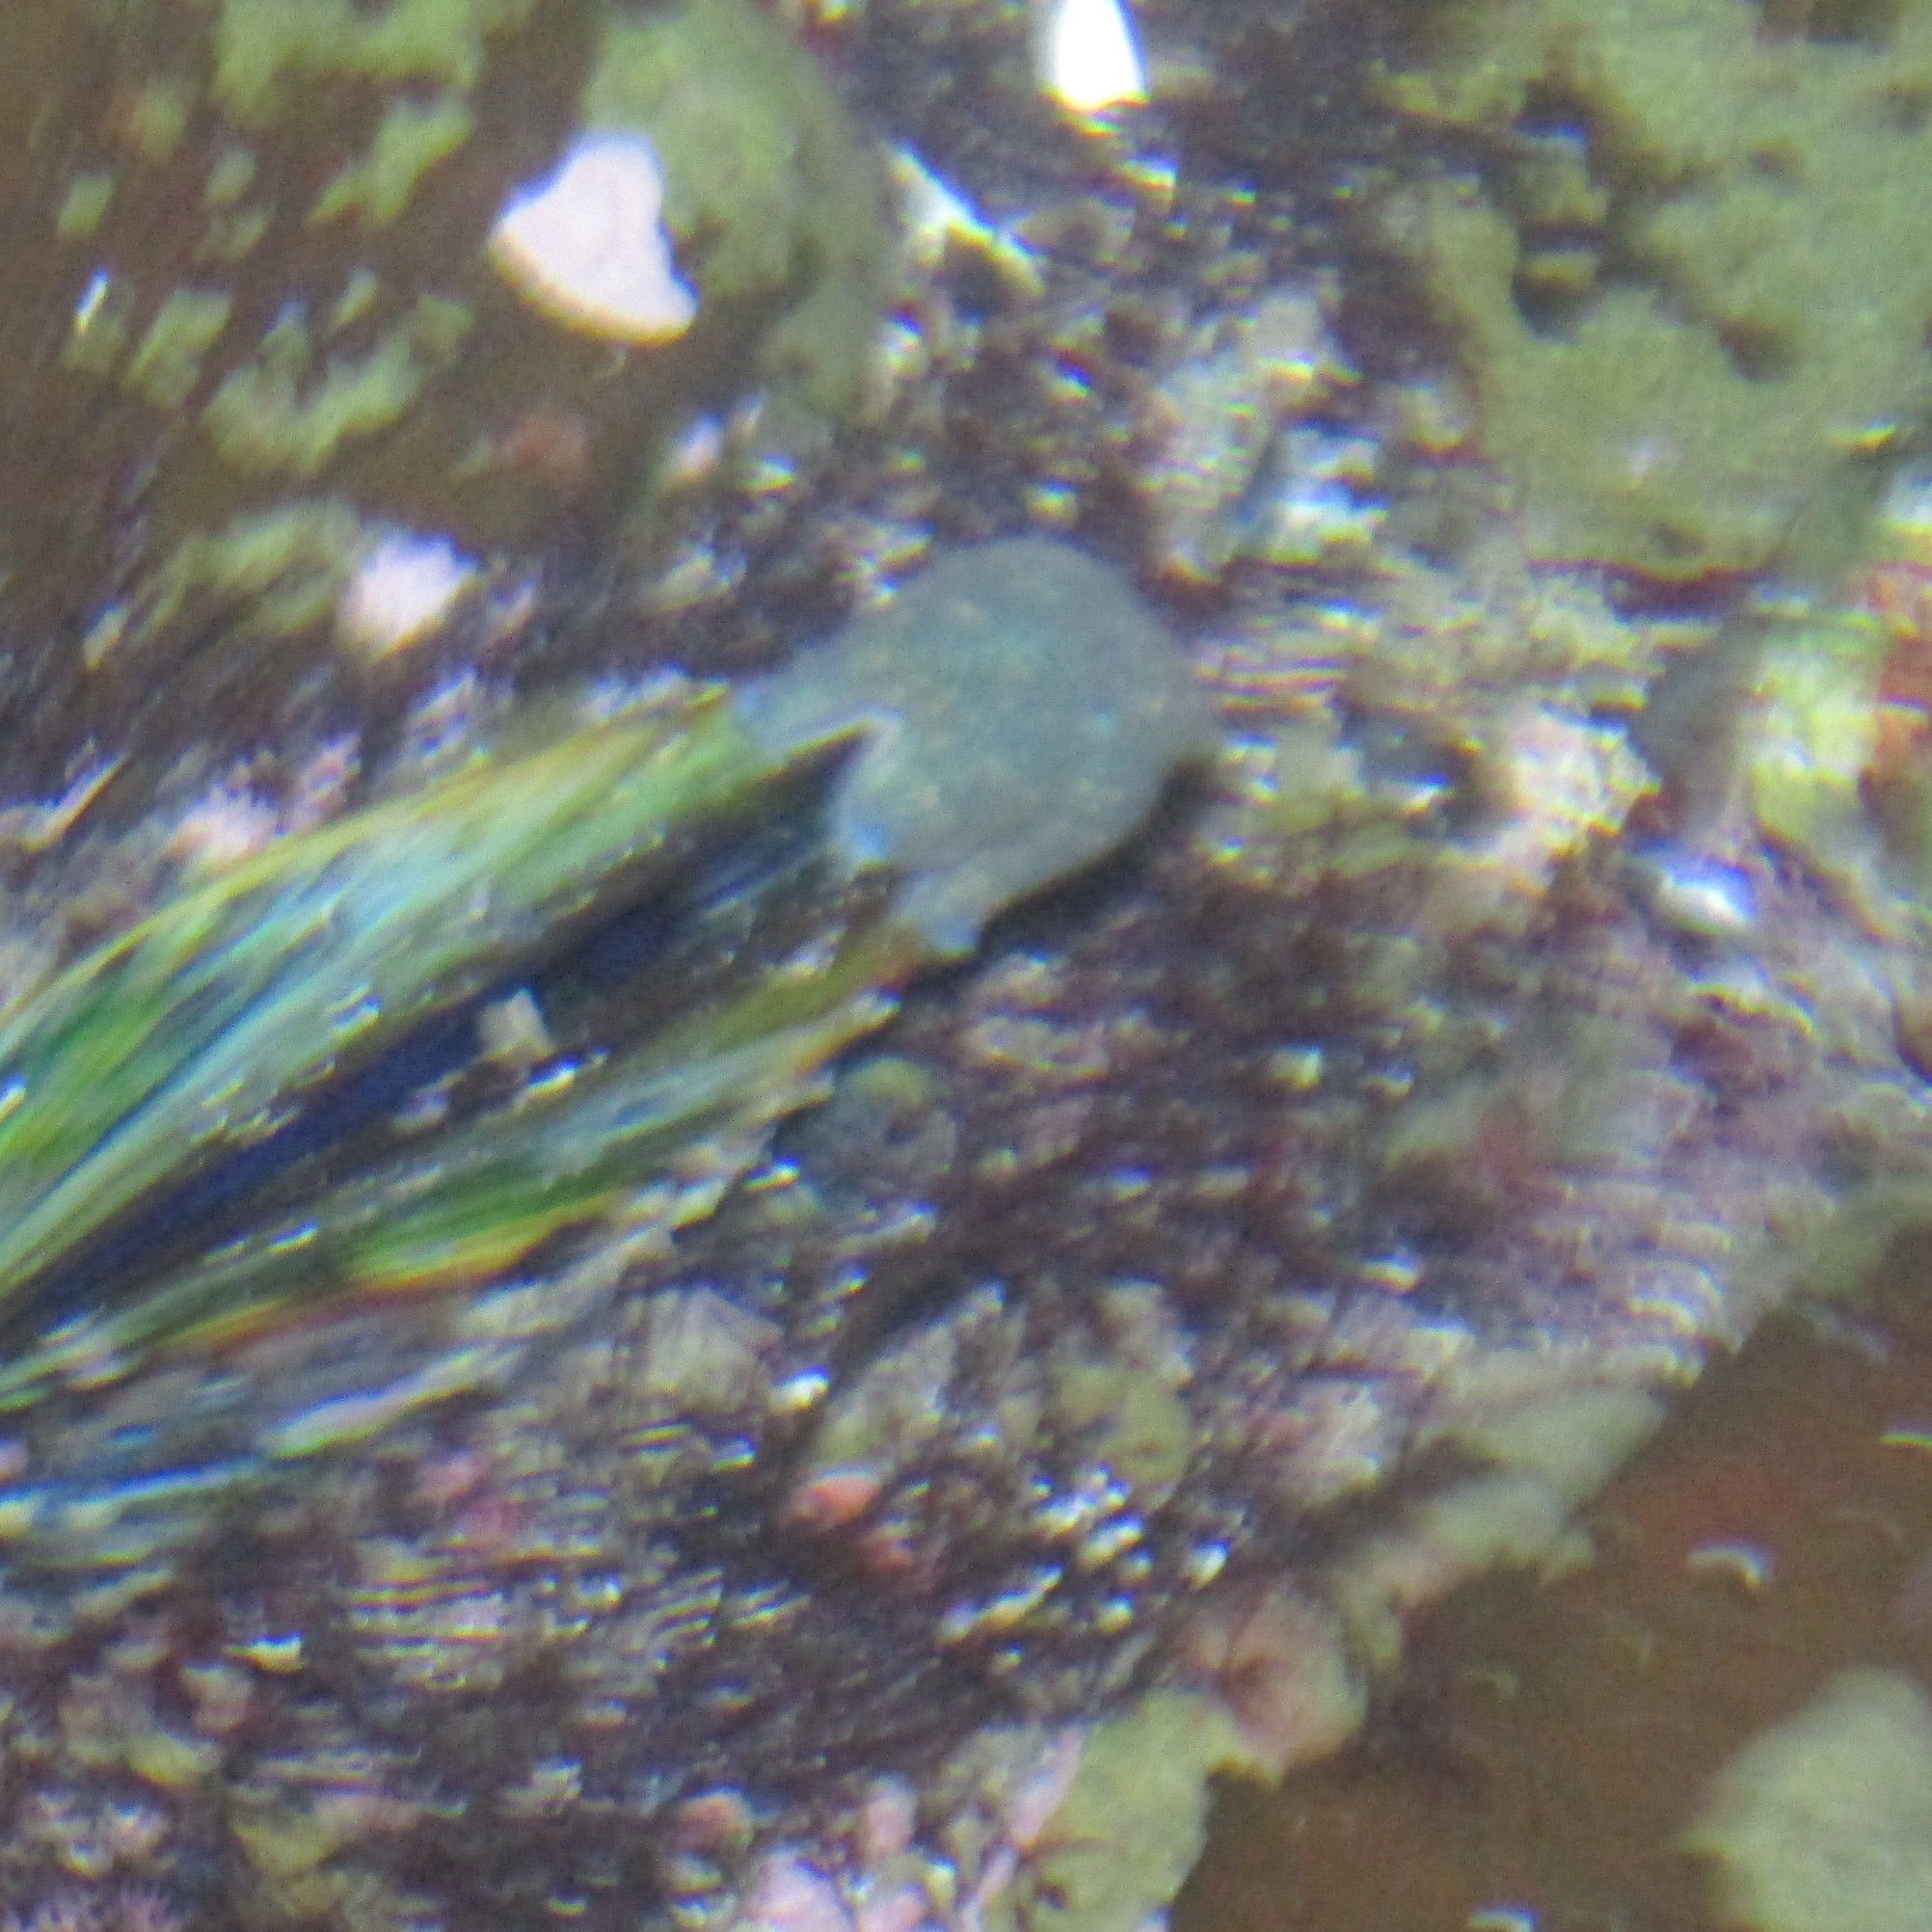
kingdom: Animalia
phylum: Echinodermata
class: Asteroidea
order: Valvatida
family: Asterinidae
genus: Patiriella
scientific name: Patiriella regularis
